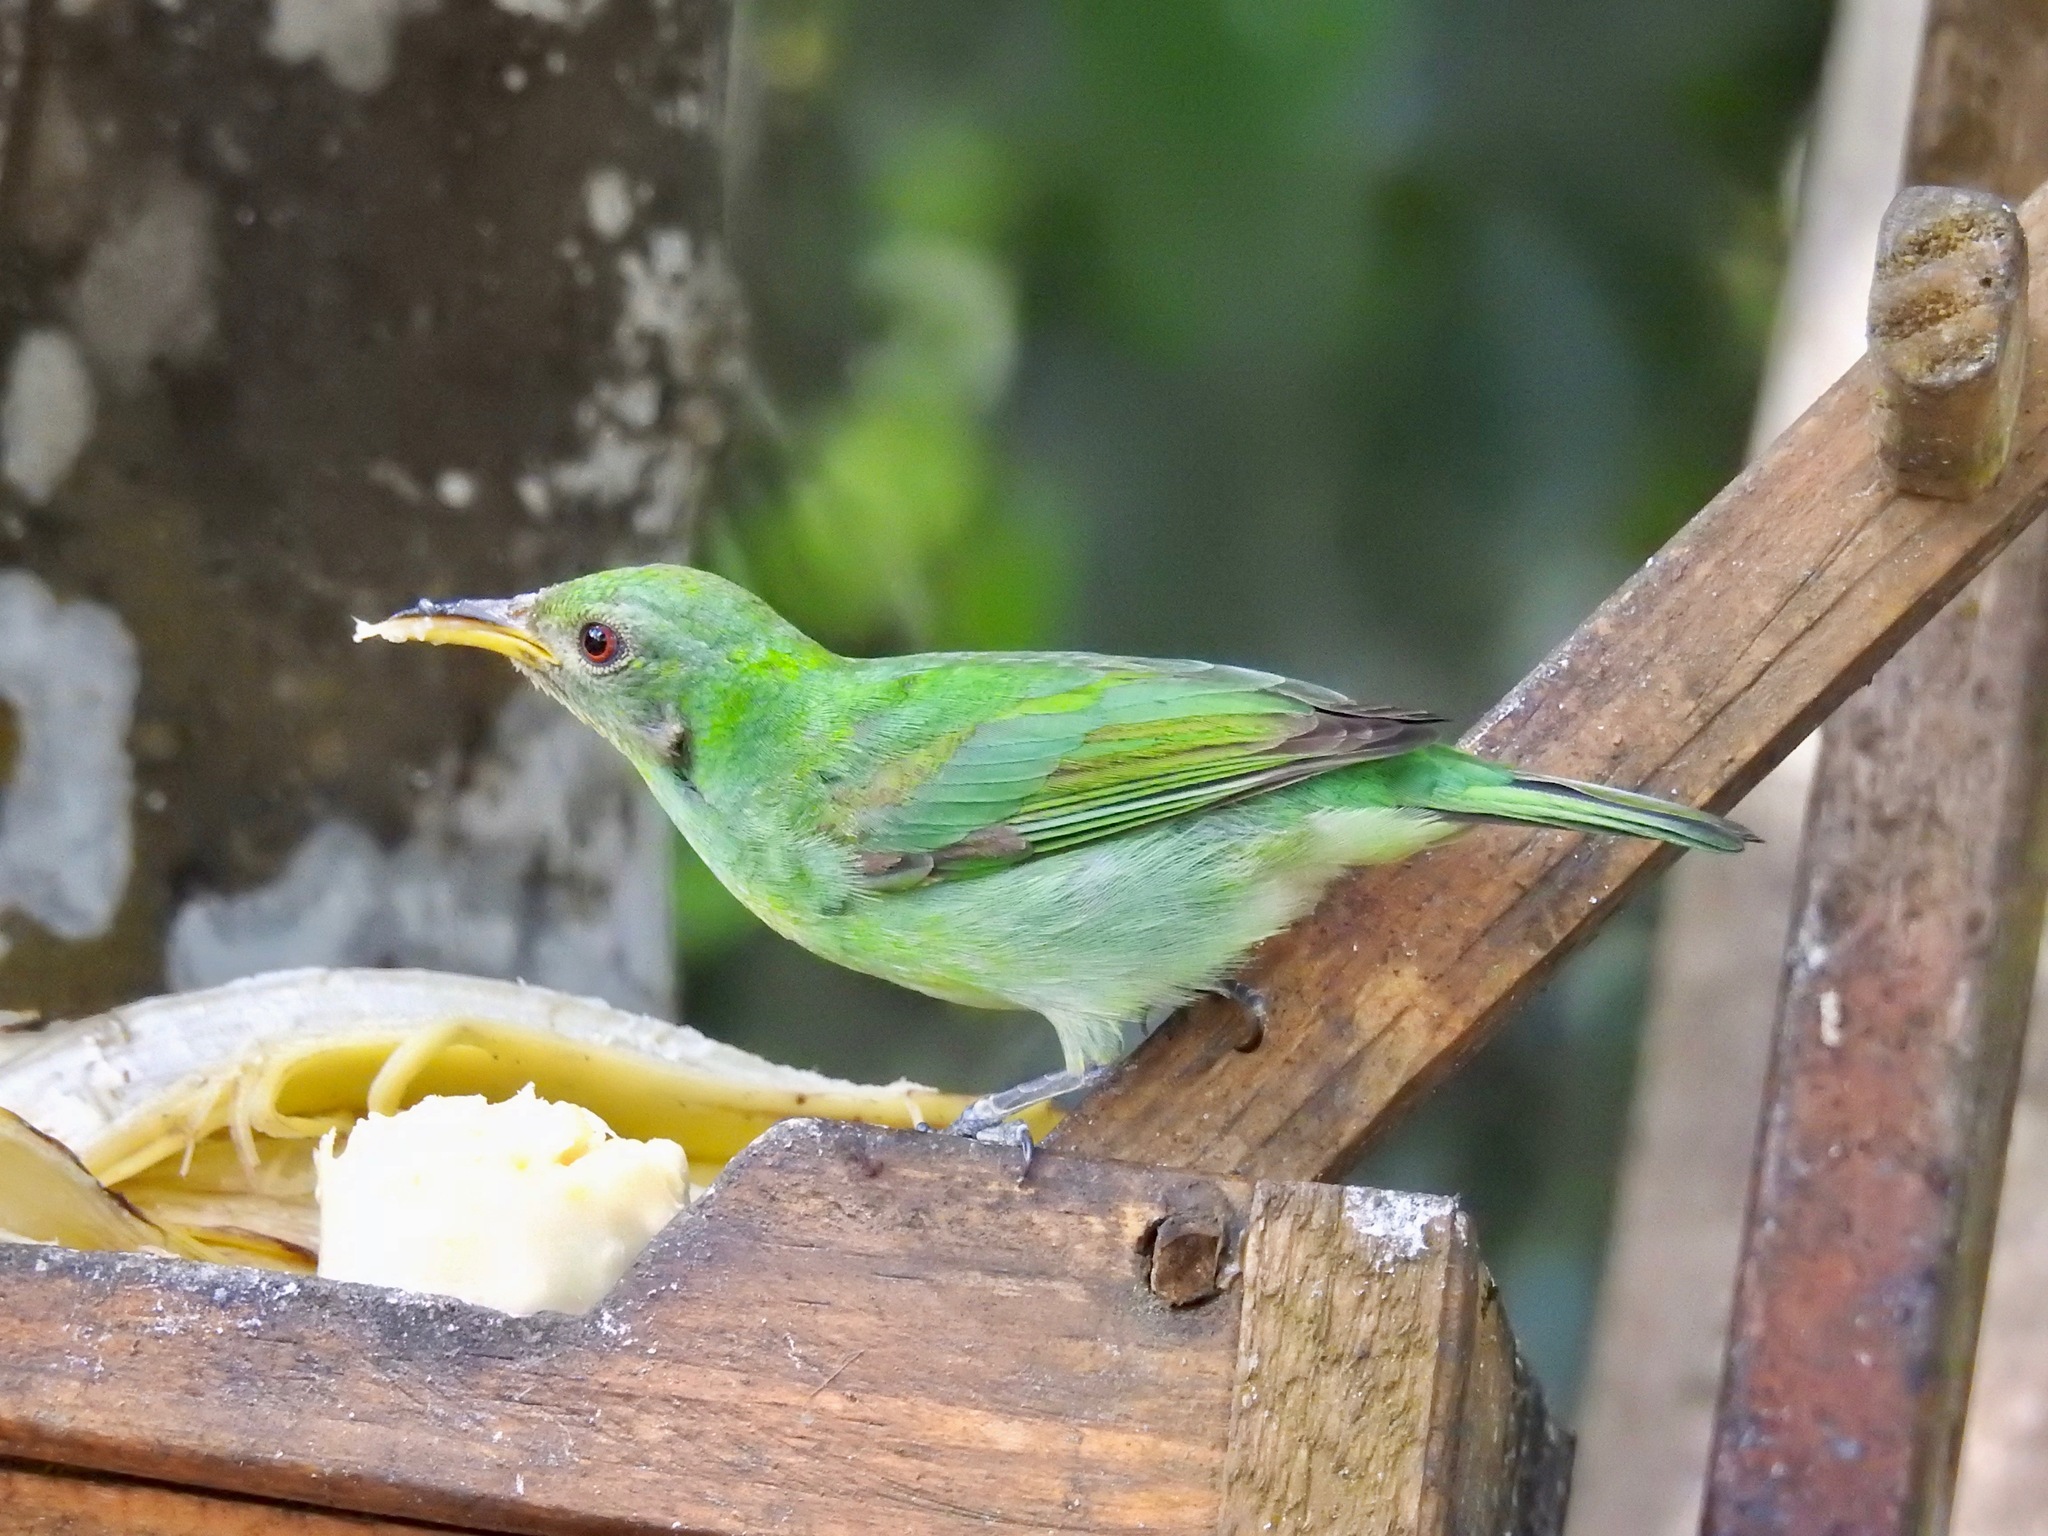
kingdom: Animalia
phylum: Chordata
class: Aves
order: Passeriformes
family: Thraupidae
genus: Chlorophanes
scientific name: Chlorophanes spiza
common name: Green honeycreeper
